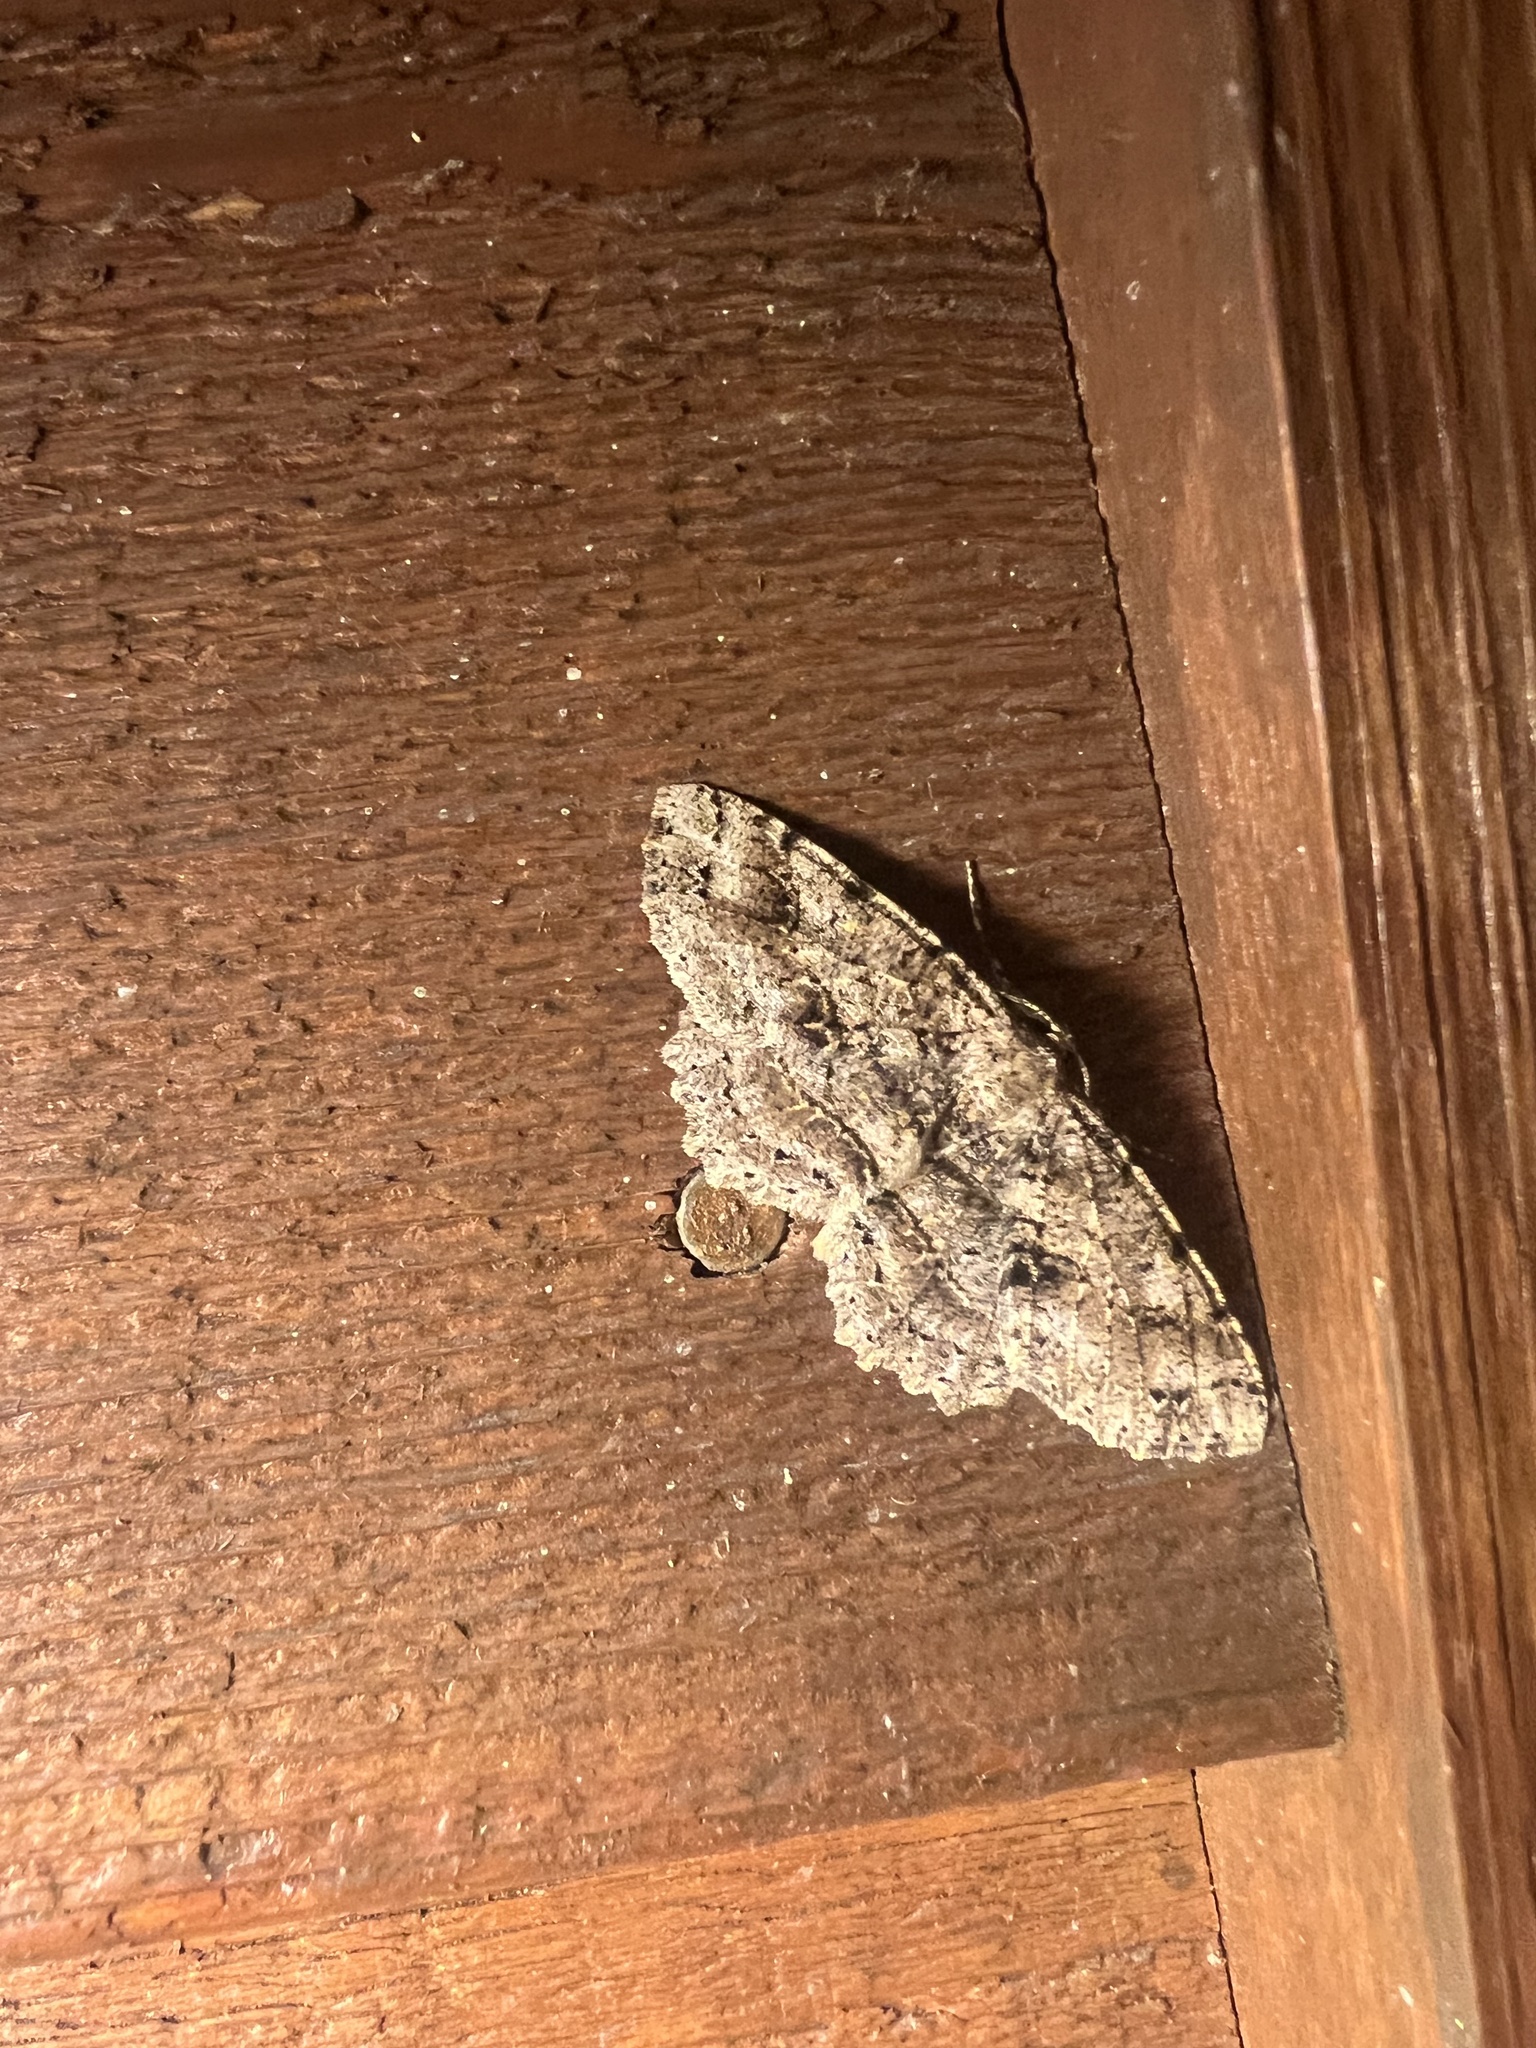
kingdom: Animalia
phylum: Arthropoda
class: Insecta
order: Lepidoptera
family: Geometridae
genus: Melanolophia
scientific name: Melanolophia canadaria
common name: Canadian melanolophia
